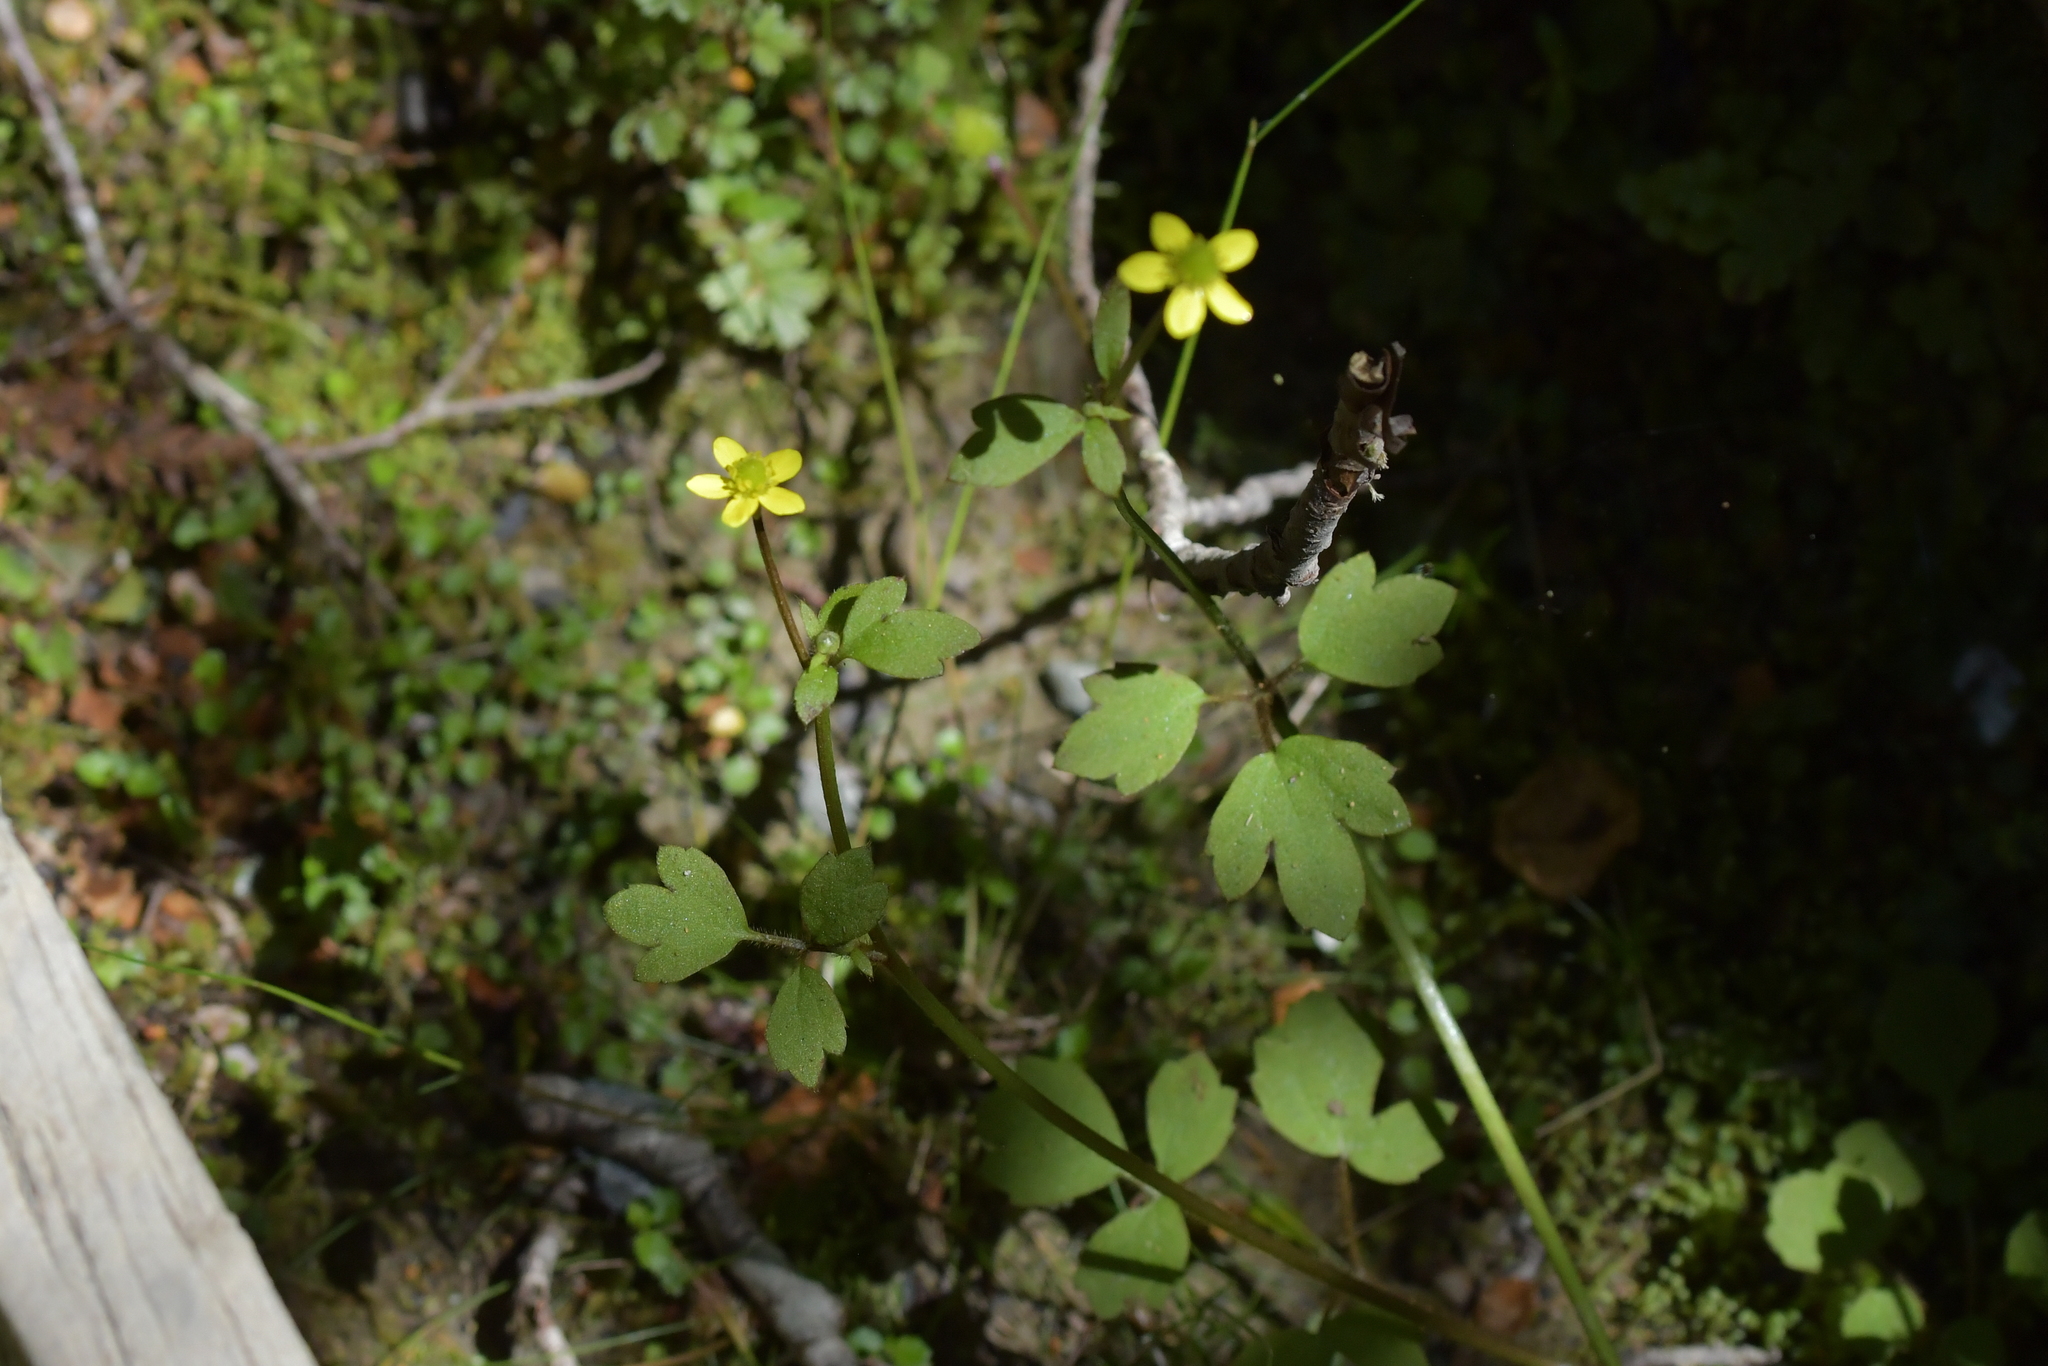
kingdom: Plantae
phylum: Tracheophyta
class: Magnoliopsida
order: Ranunculales
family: Ranunculaceae
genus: Ranunculus
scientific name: Ranunculus reflexus
